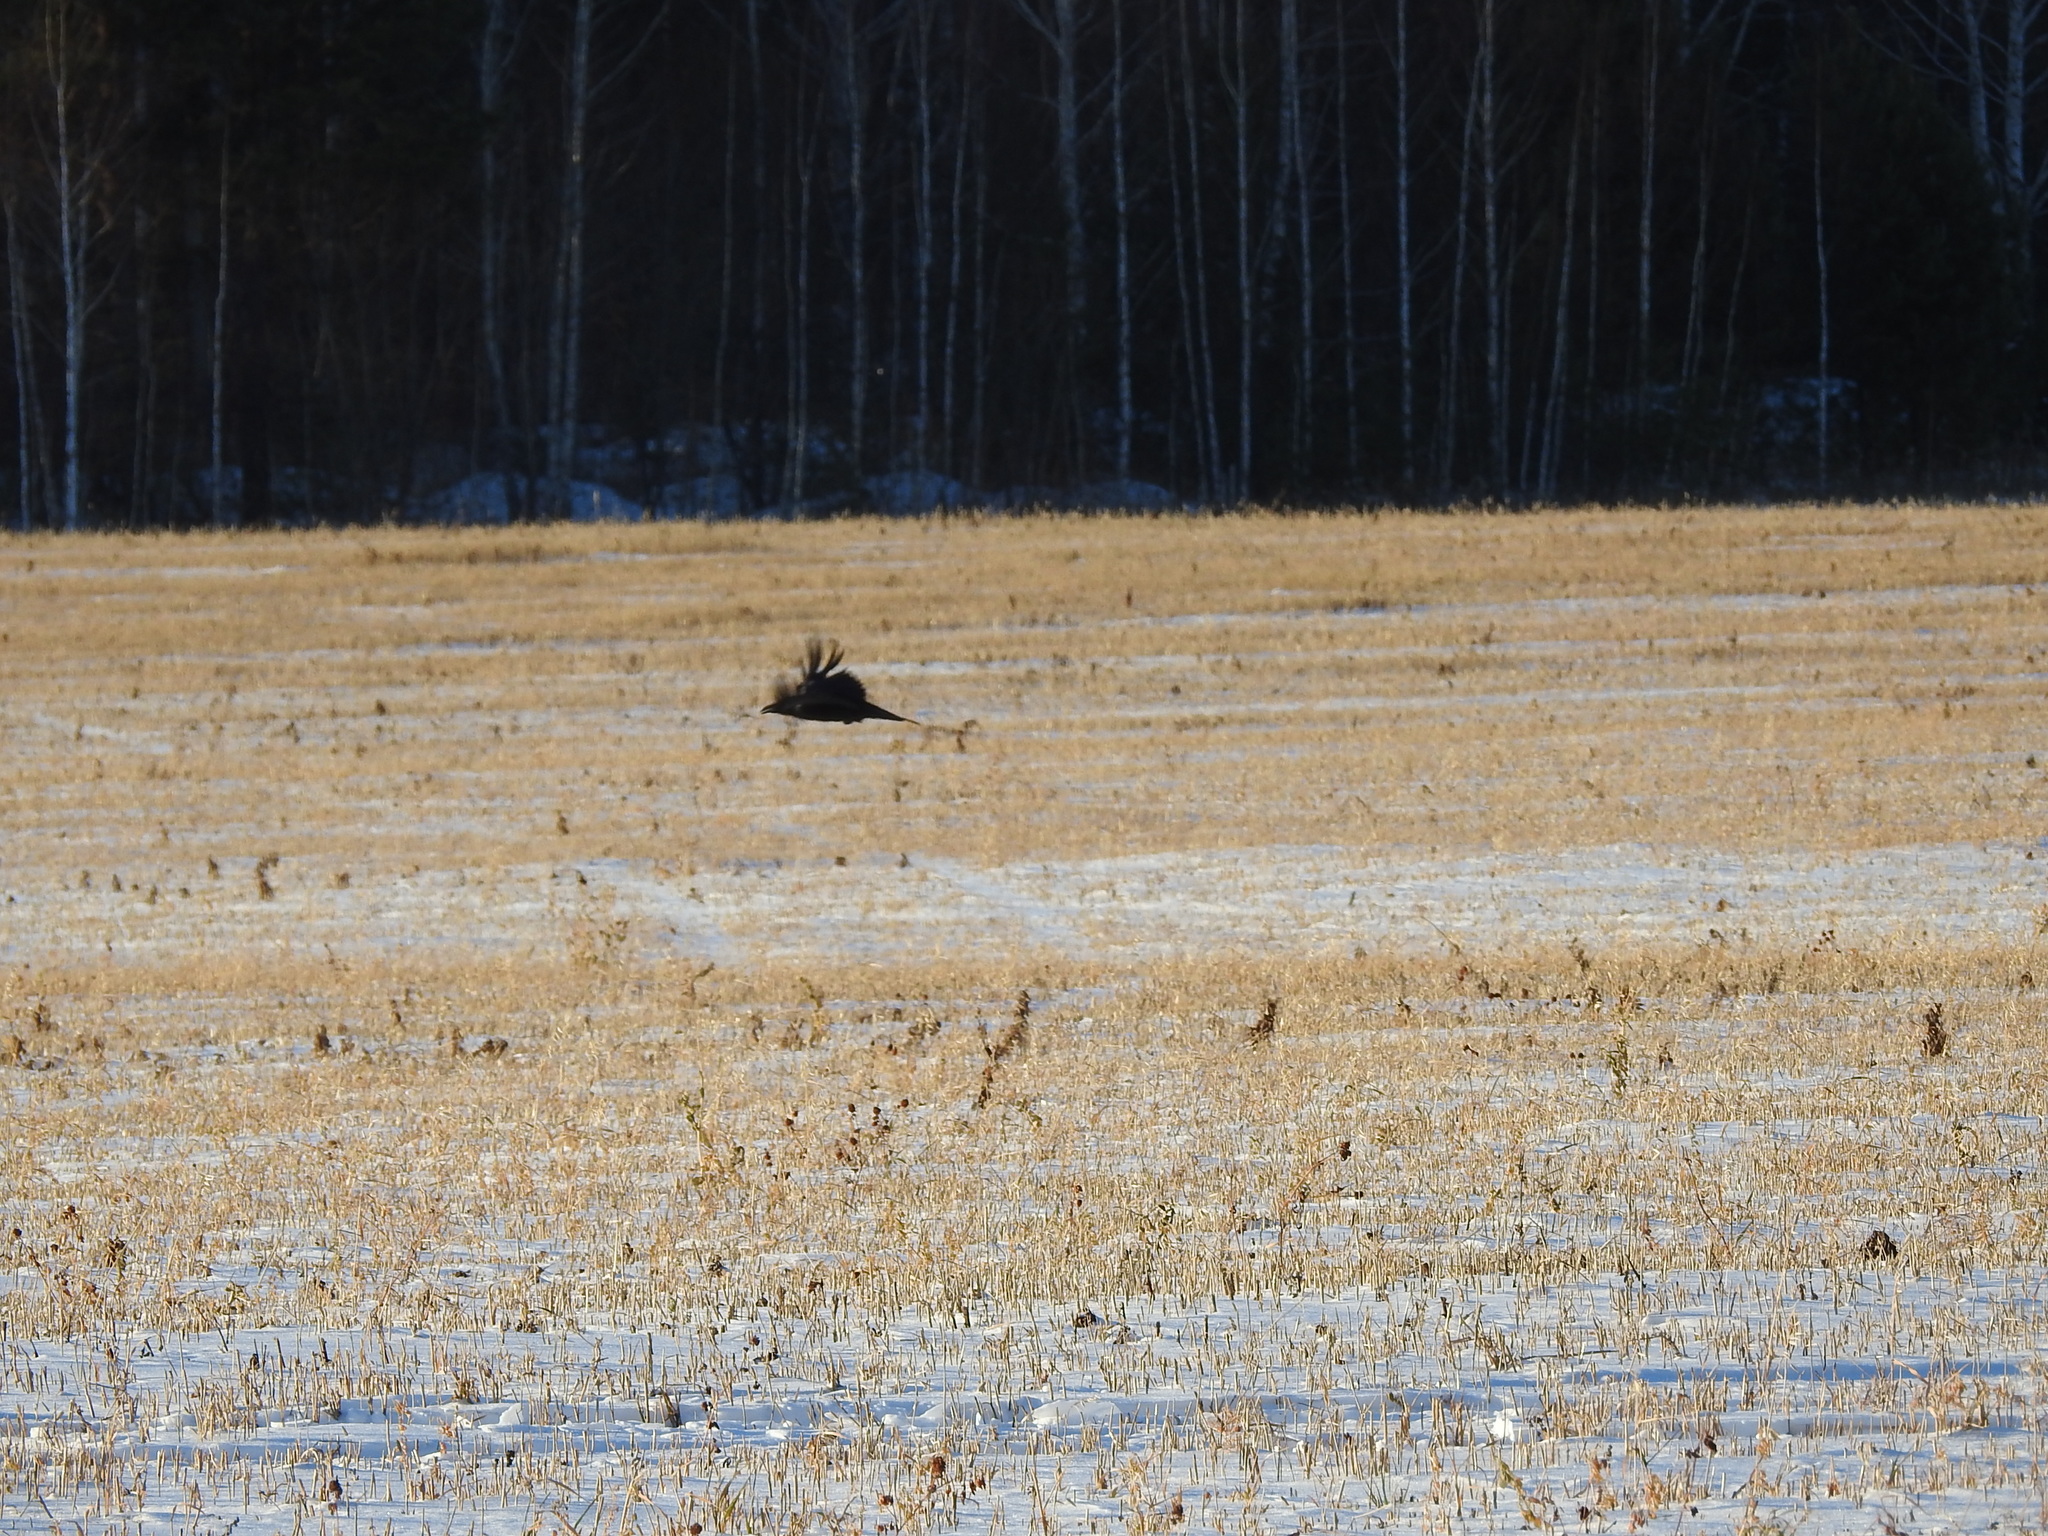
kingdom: Animalia
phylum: Chordata
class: Aves
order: Passeriformes
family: Corvidae
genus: Corvus
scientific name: Corvus corax
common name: Common raven
